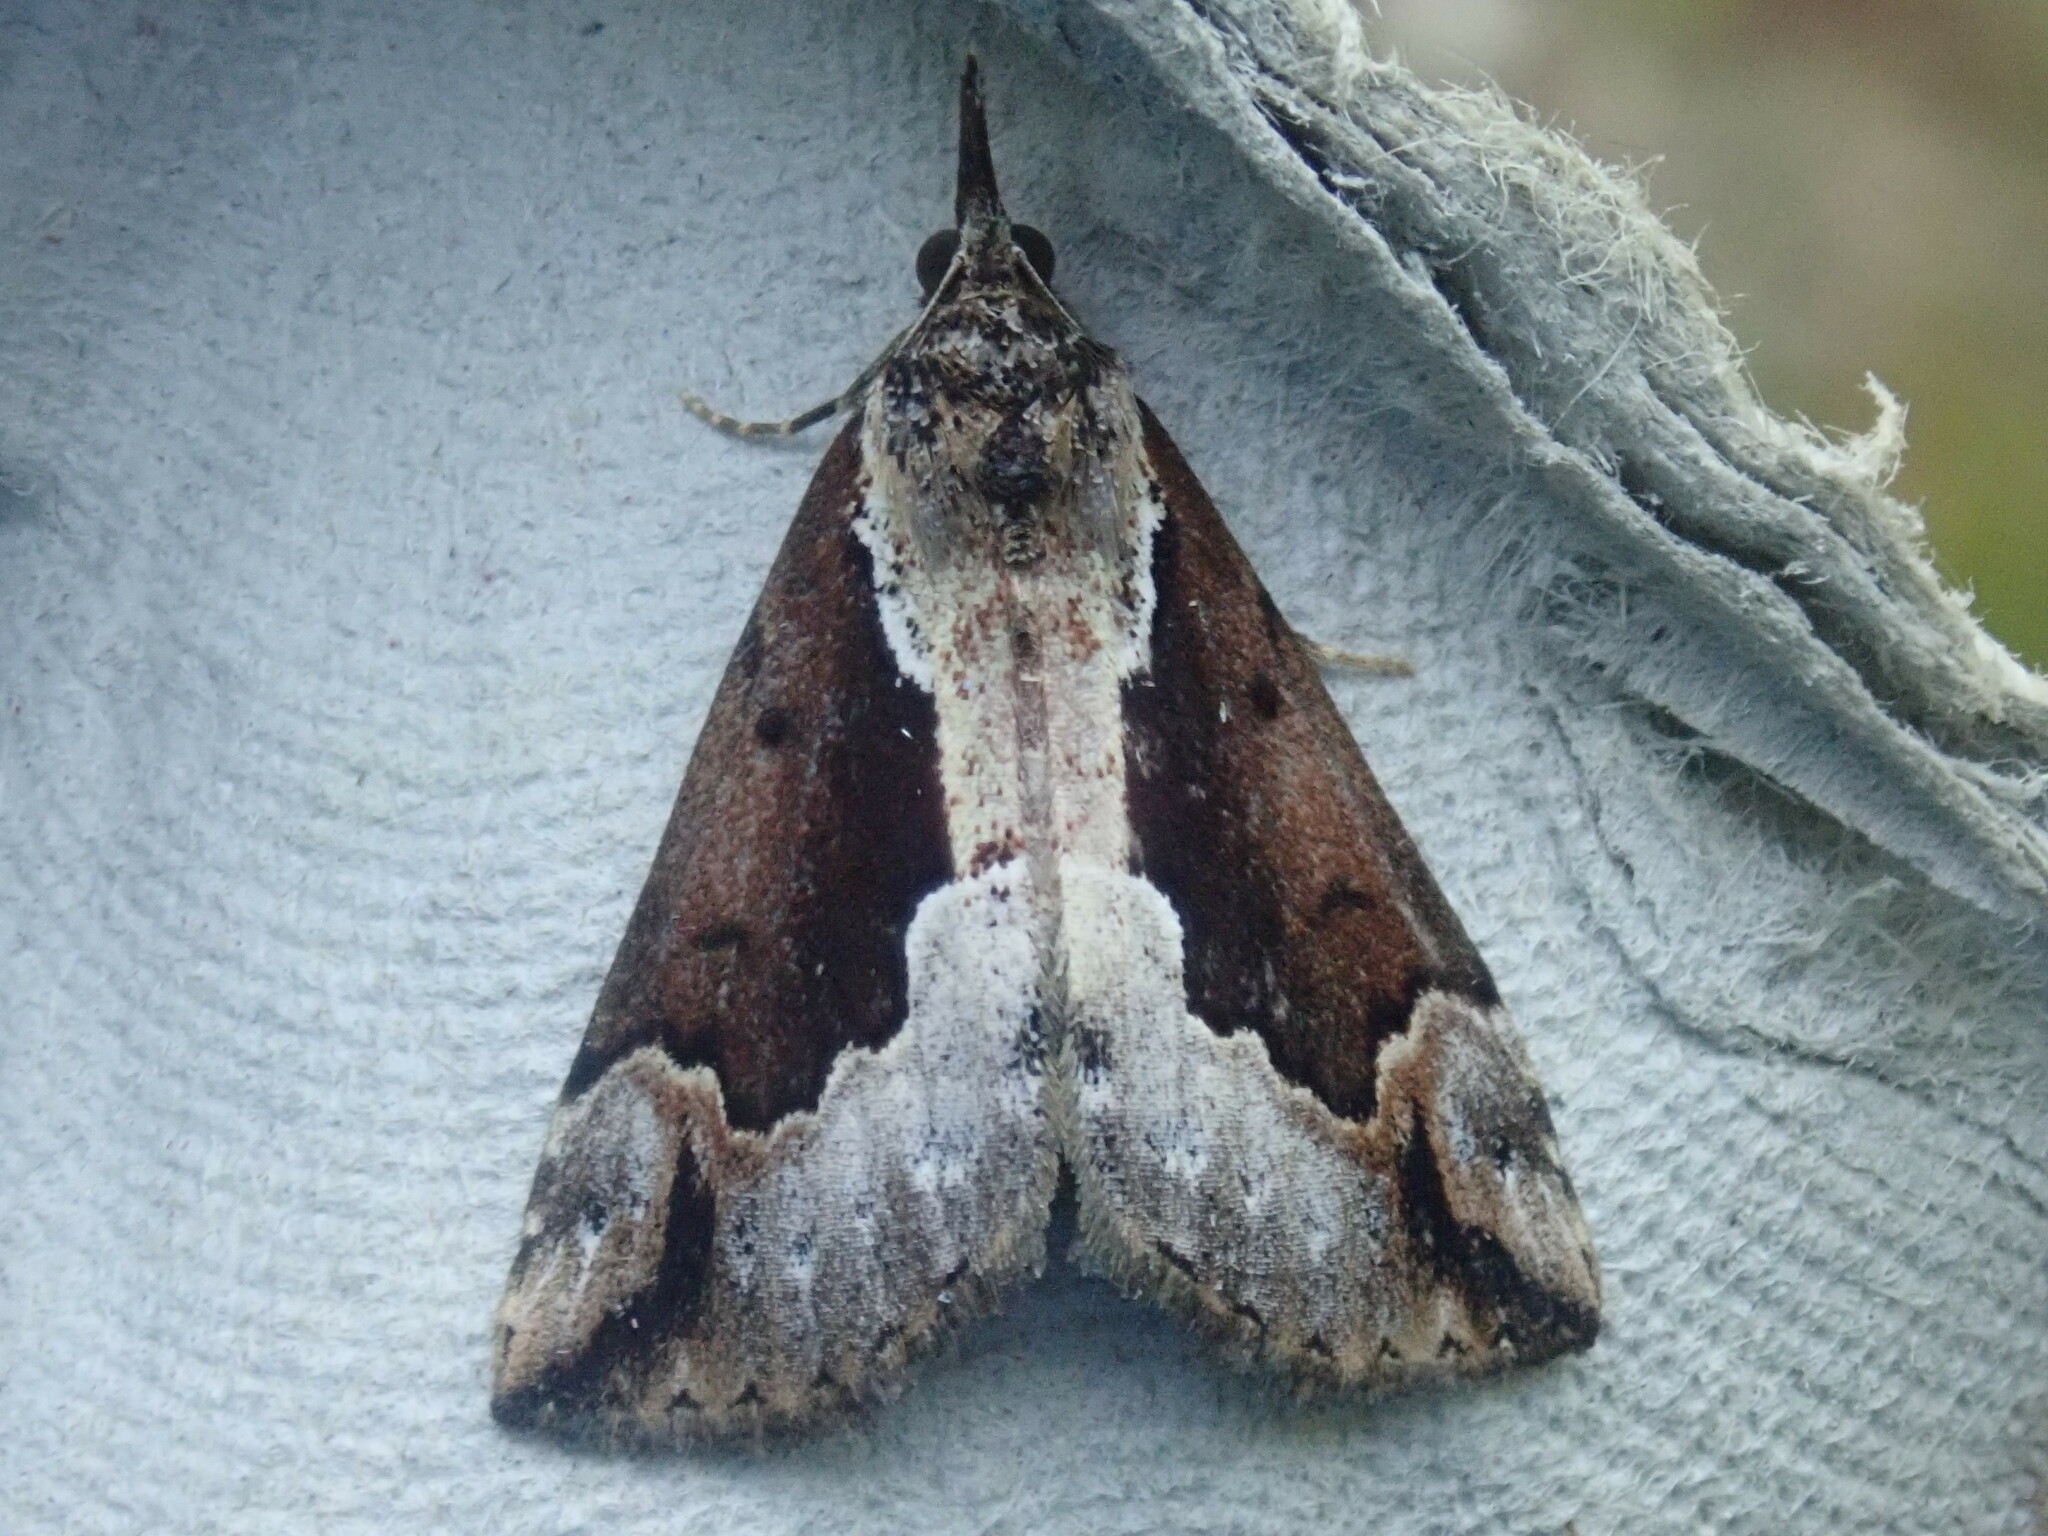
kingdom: Animalia
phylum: Arthropoda
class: Insecta
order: Lepidoptera
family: Erebidae
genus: Hypena
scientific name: Hypena baltimoralis
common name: Baltimore snout
